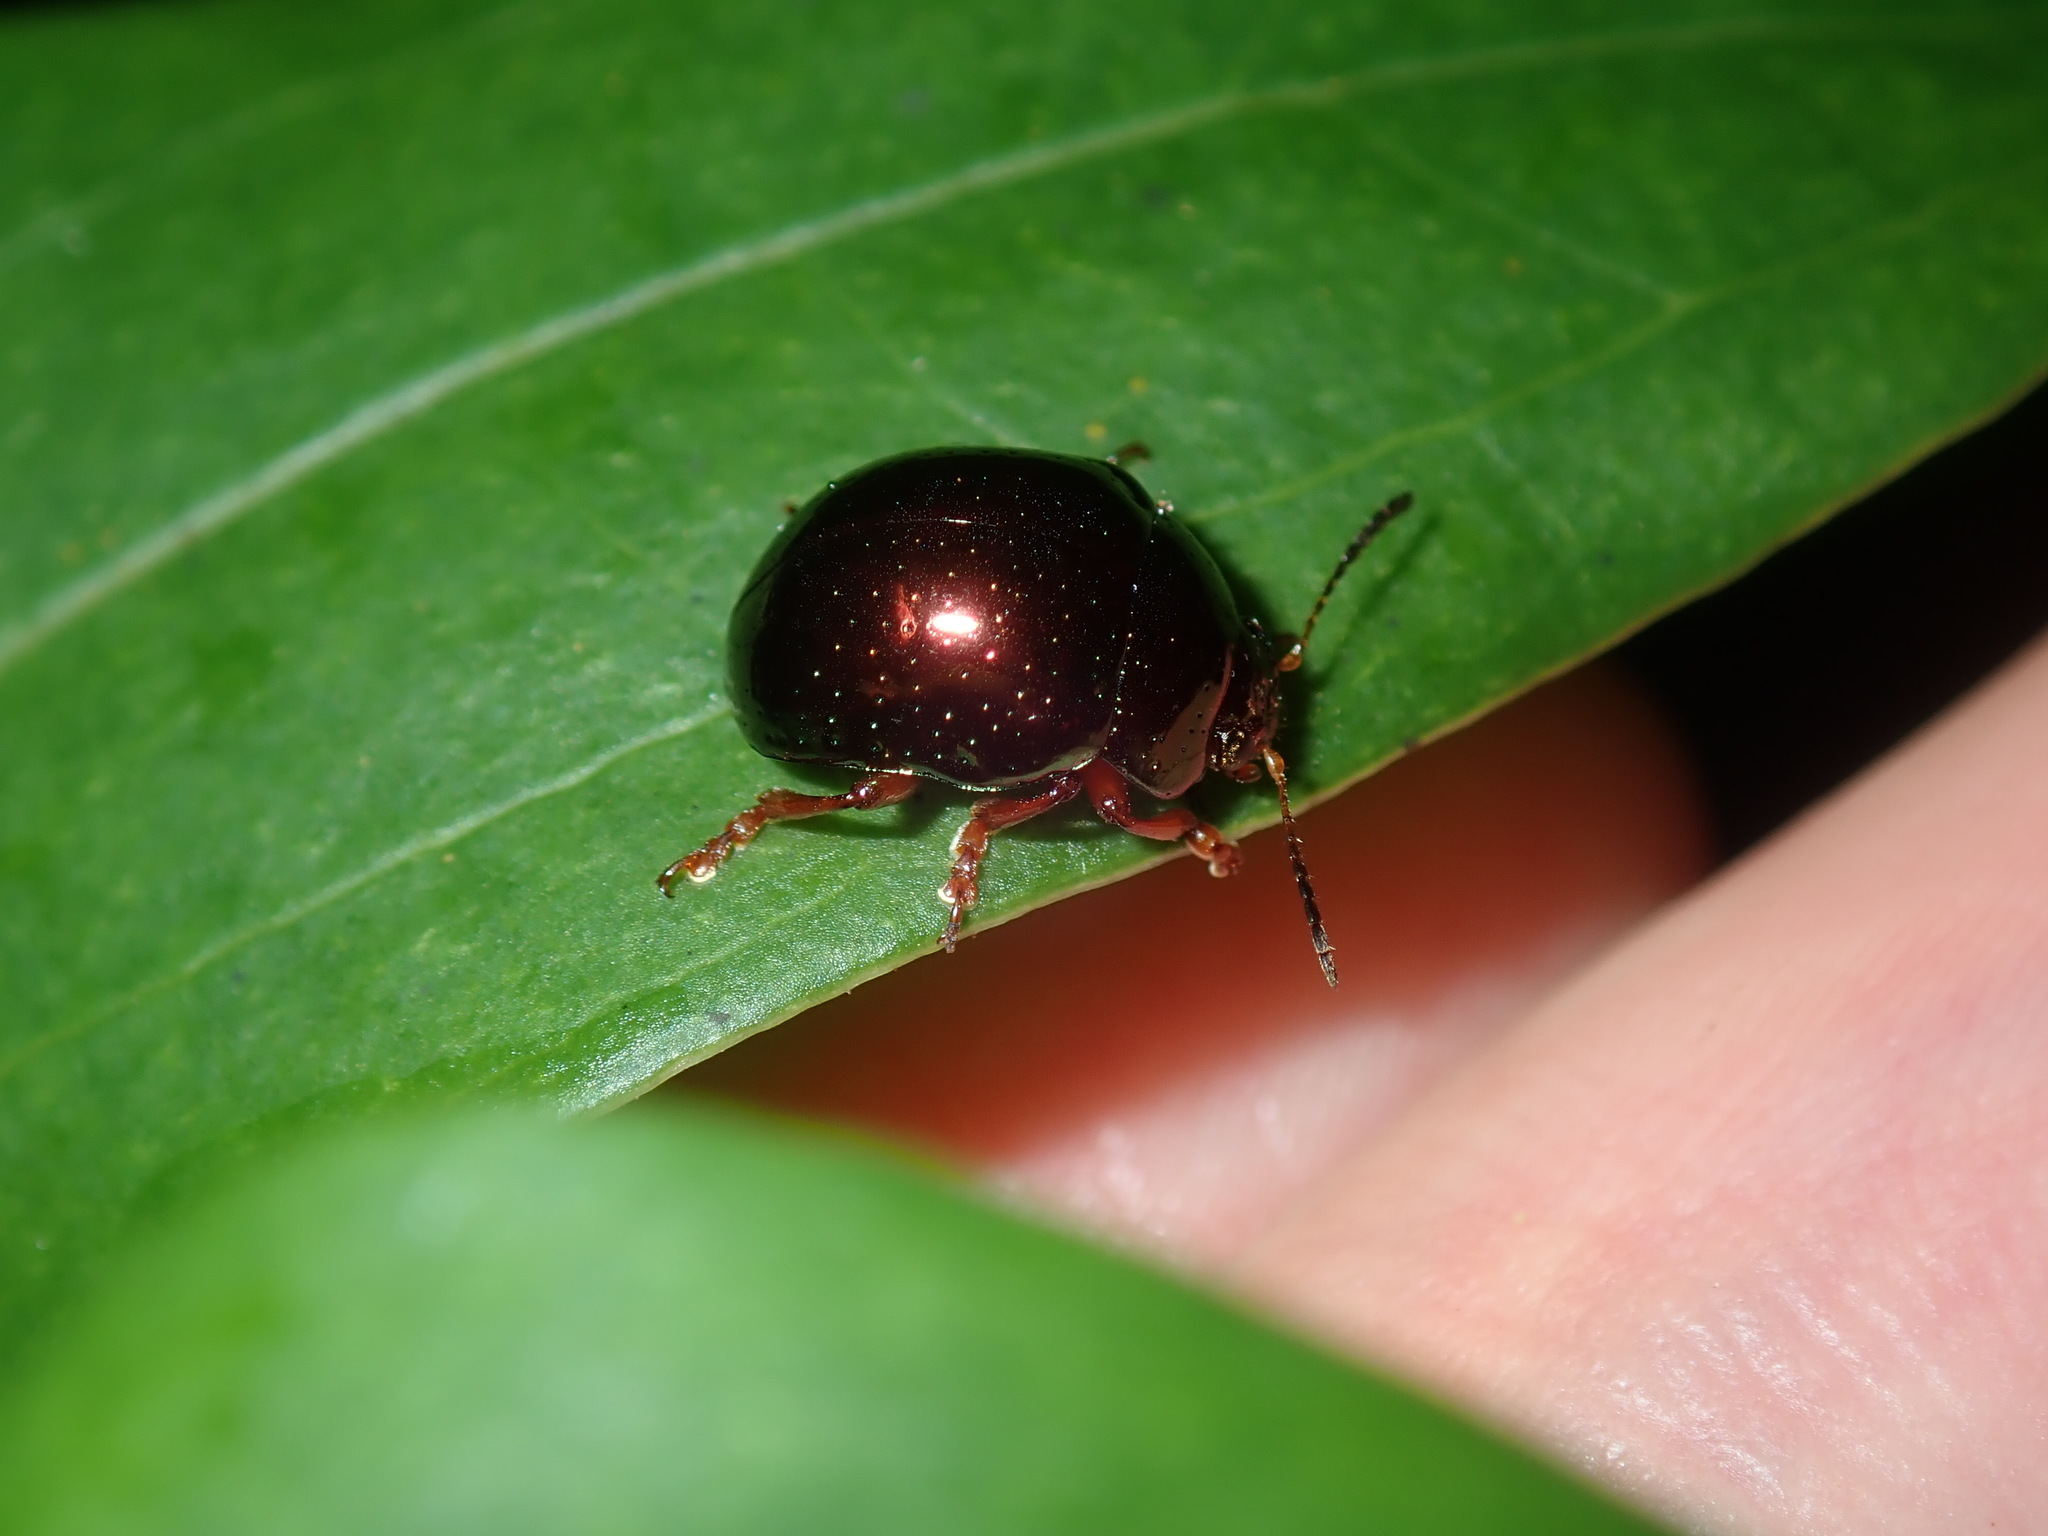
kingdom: Animalia
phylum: Arthropoda
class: Insecta
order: Coleoptera
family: Chrysomelidae
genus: Callidemum
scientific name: Callidemum
